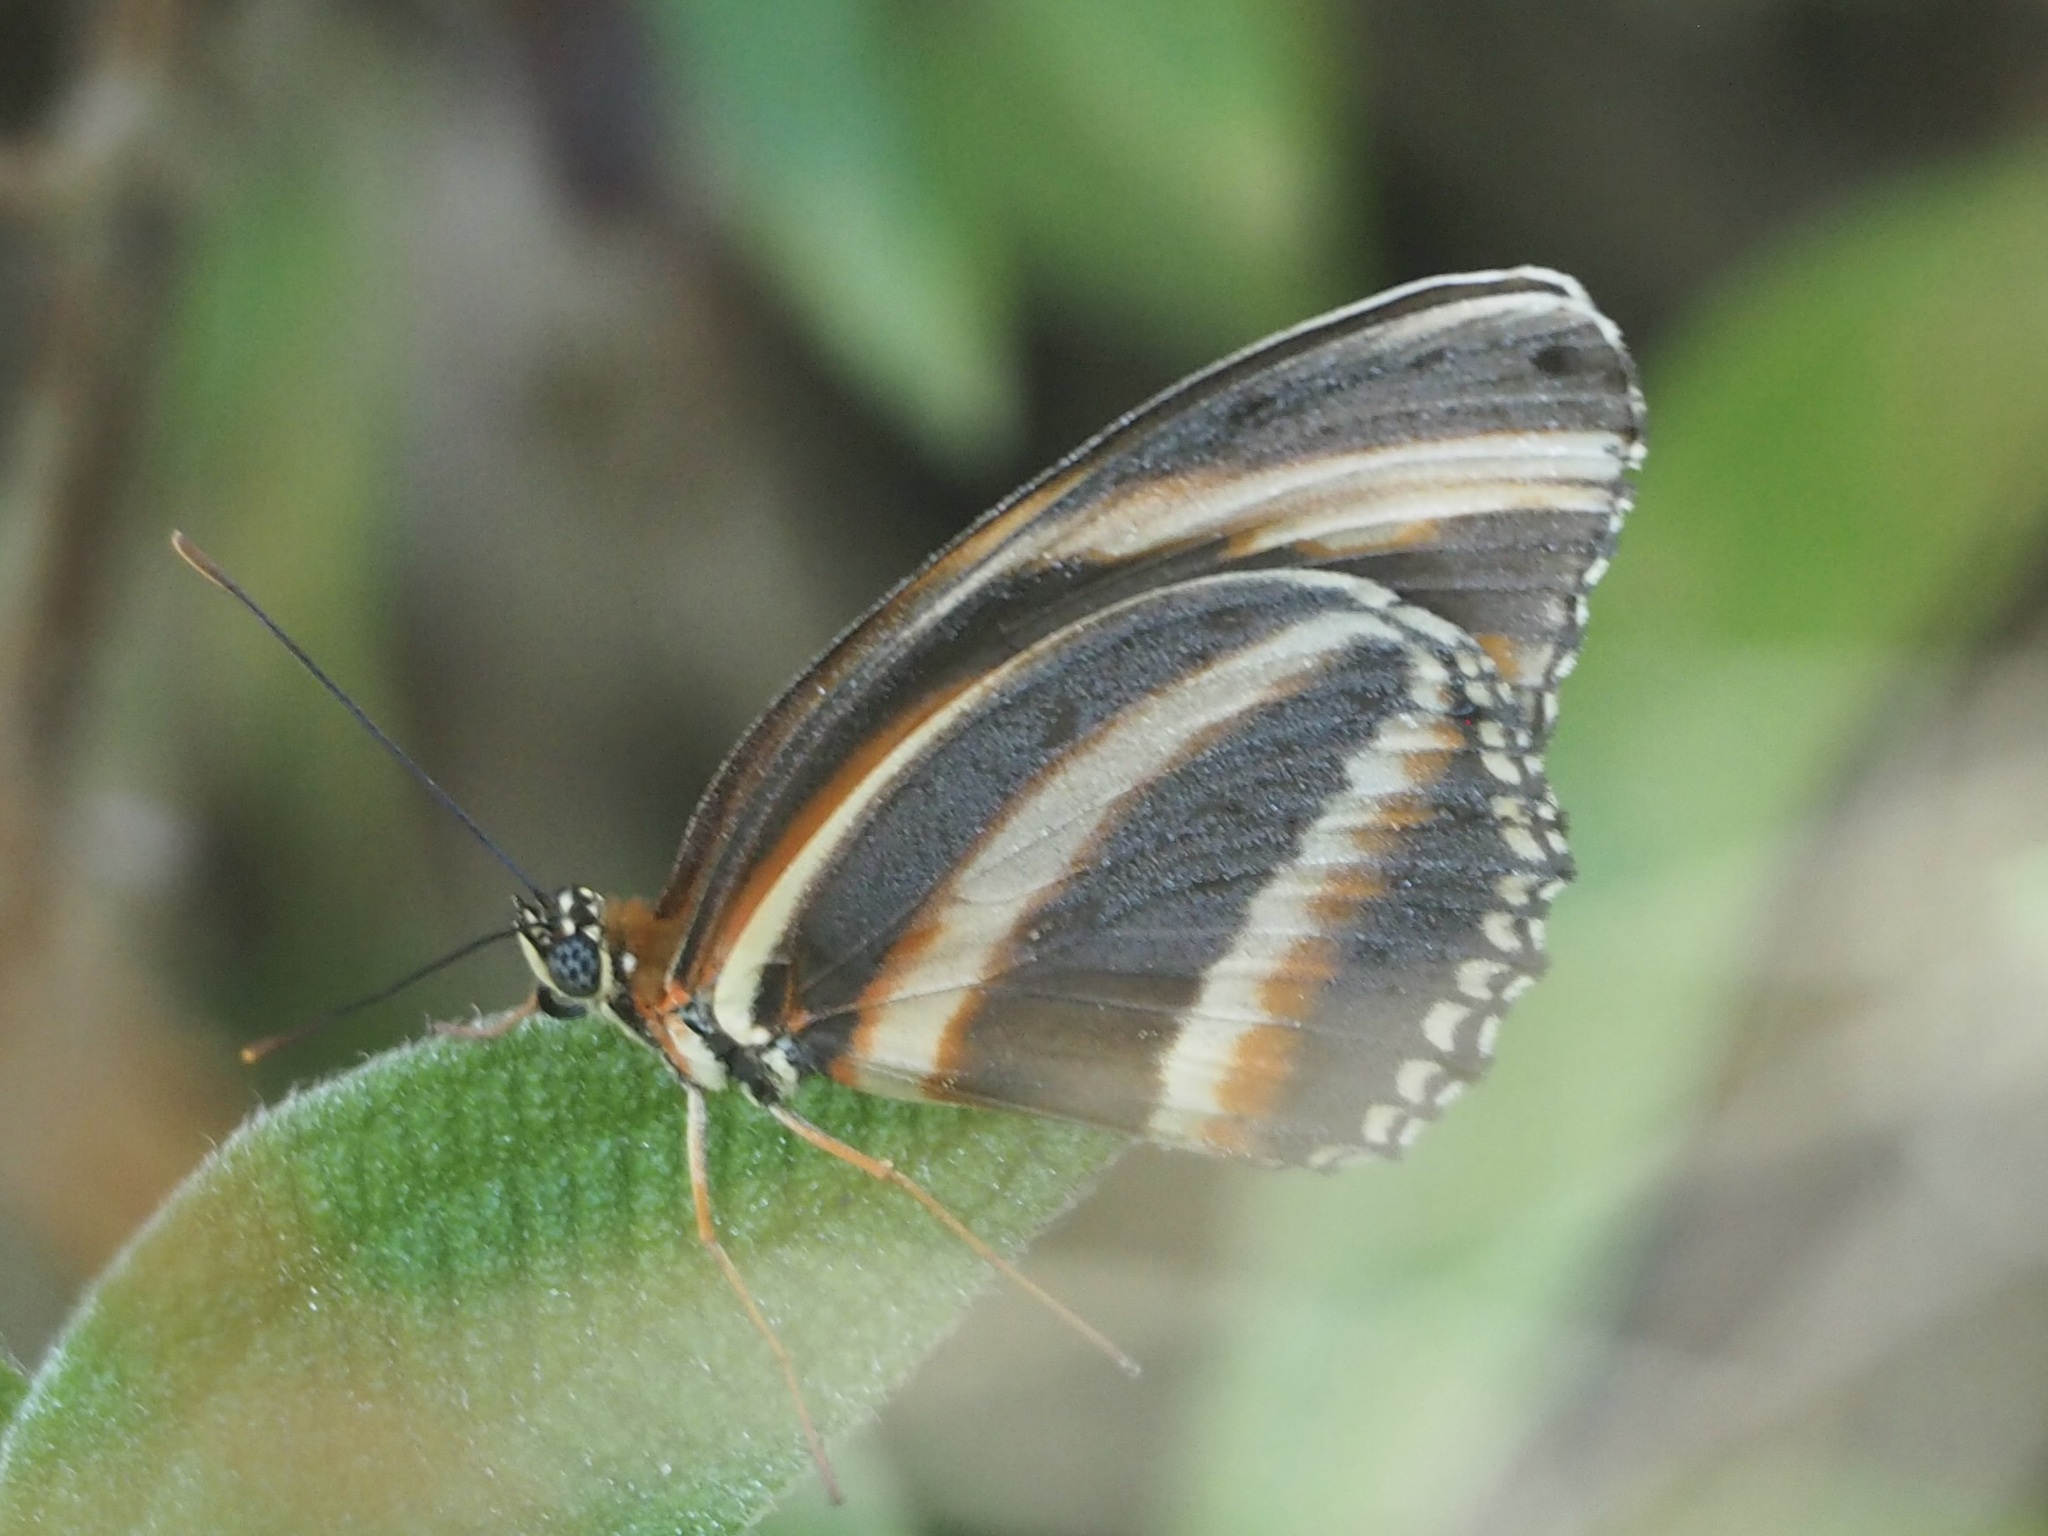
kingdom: Animalia
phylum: Arthropoda
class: Insecta
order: Lepidoptera
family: Nymphalidae
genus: Dryadula
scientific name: Dryadula phaetusa
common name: Banded orange heliconian
